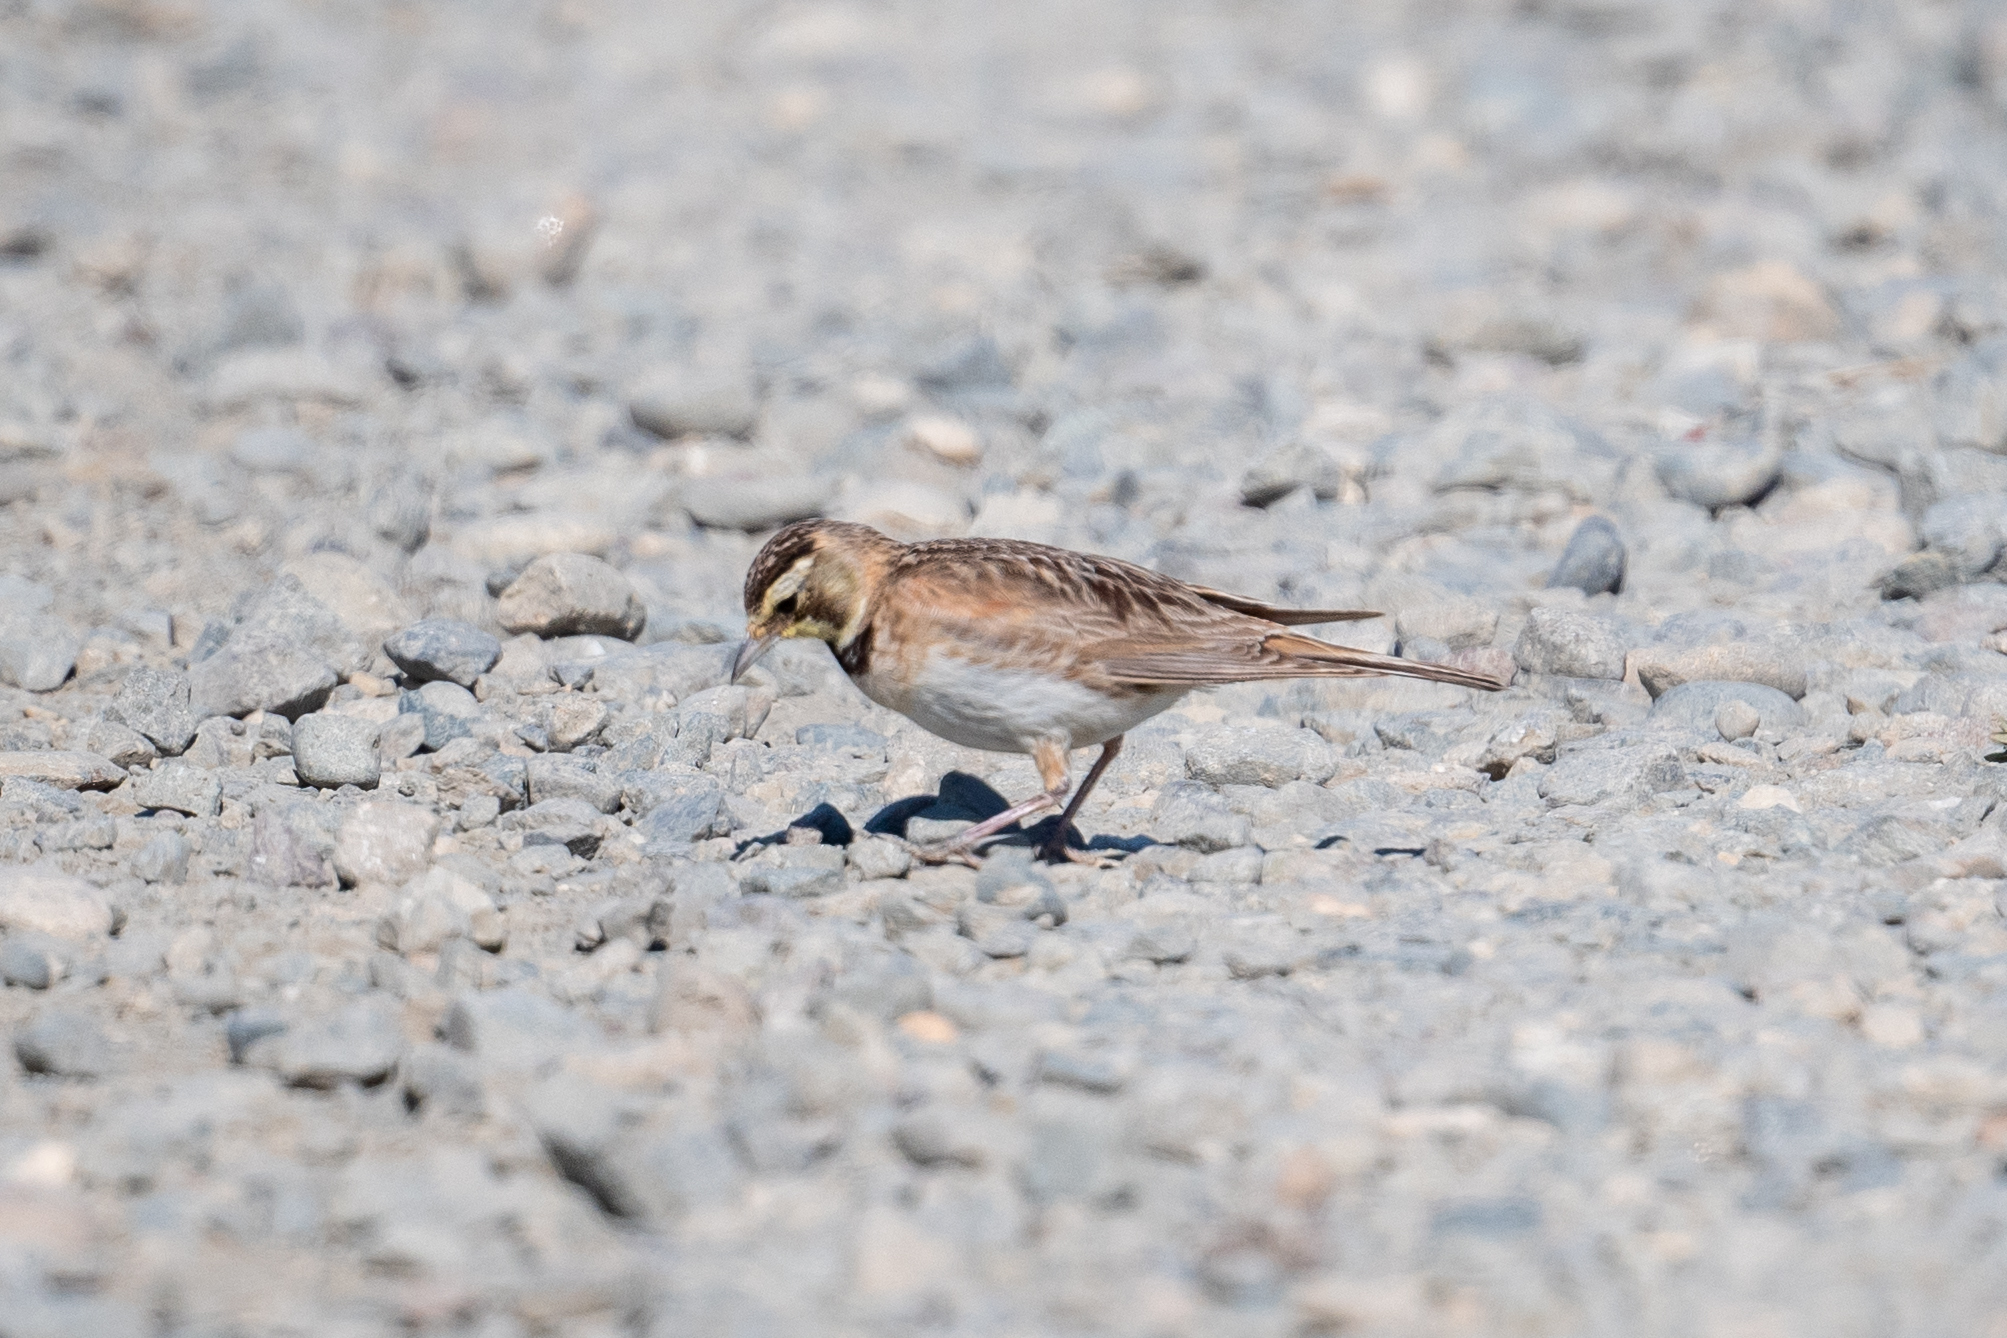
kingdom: Animalia
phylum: Chordata
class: Aves
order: Passeriformes
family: Alaudidae
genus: Eremophila
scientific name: Eremophila alpestris
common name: Horned lark
